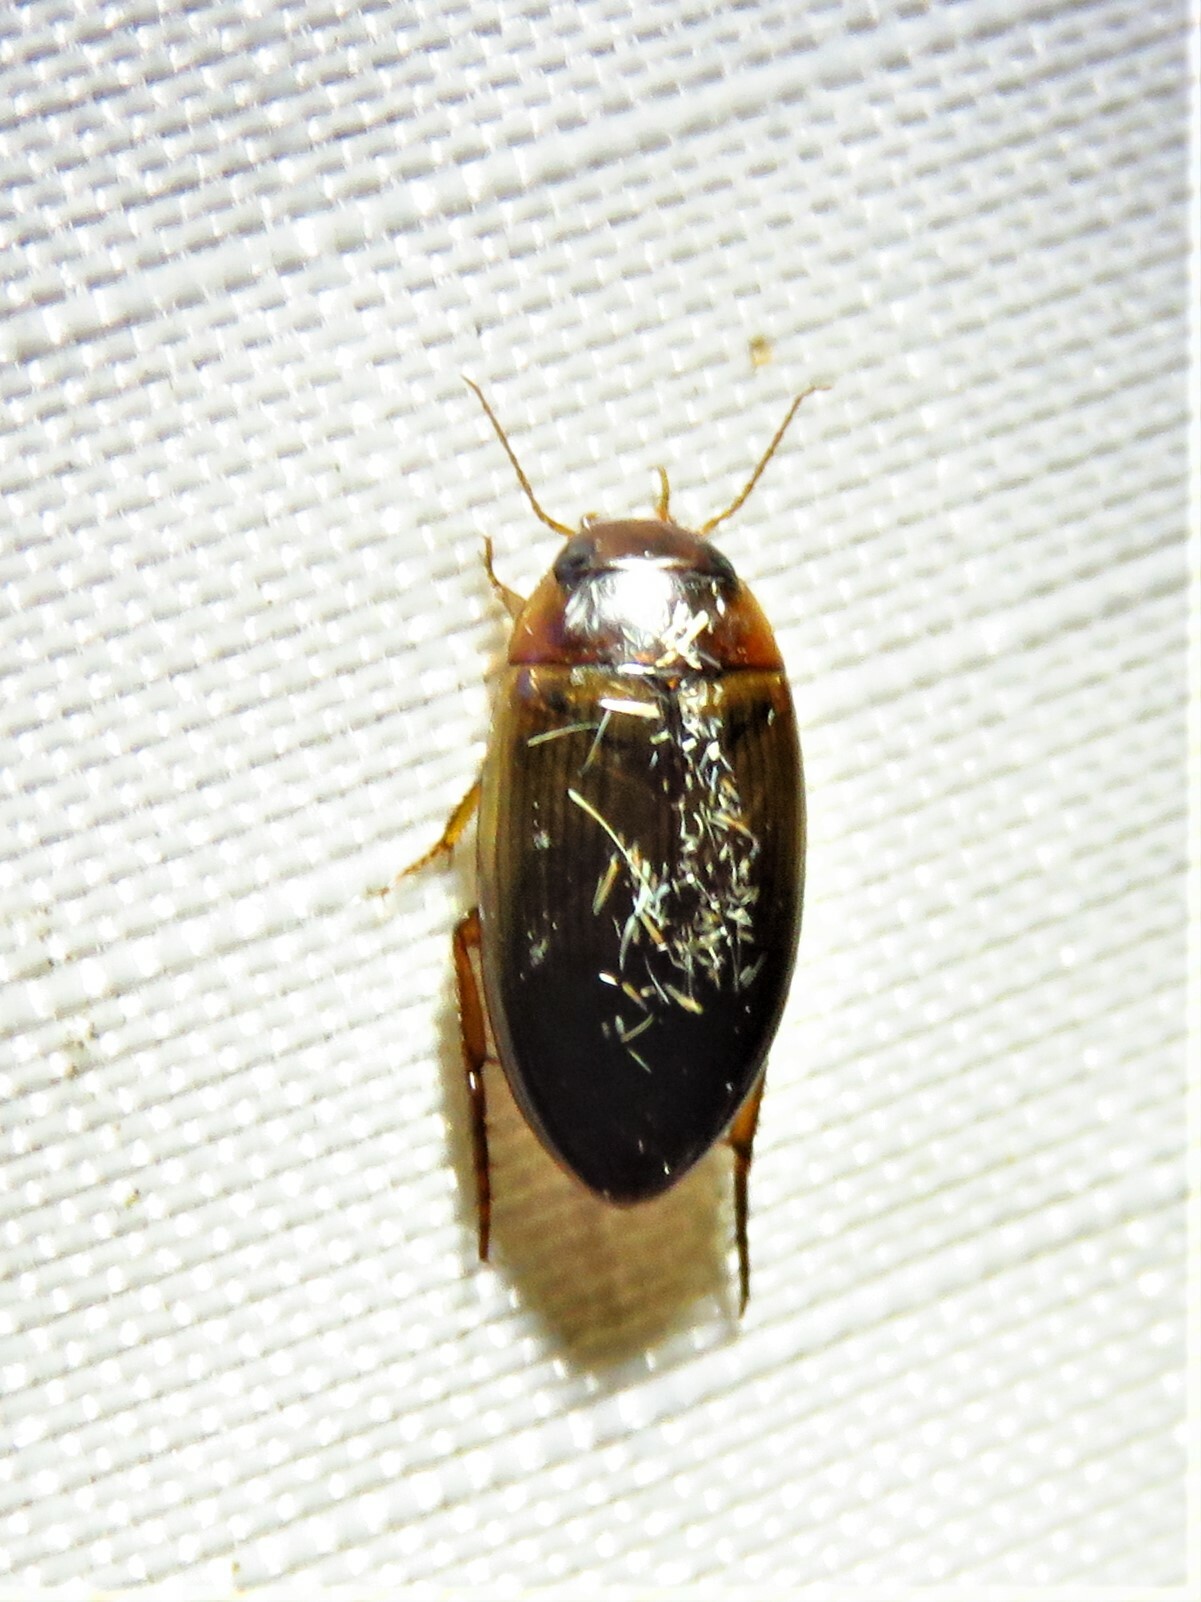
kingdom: Animalia
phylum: Arthropoda
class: Insecta
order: Coleoptera
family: Dytiscidae
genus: Copelatus
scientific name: Copelatus chevrolati
